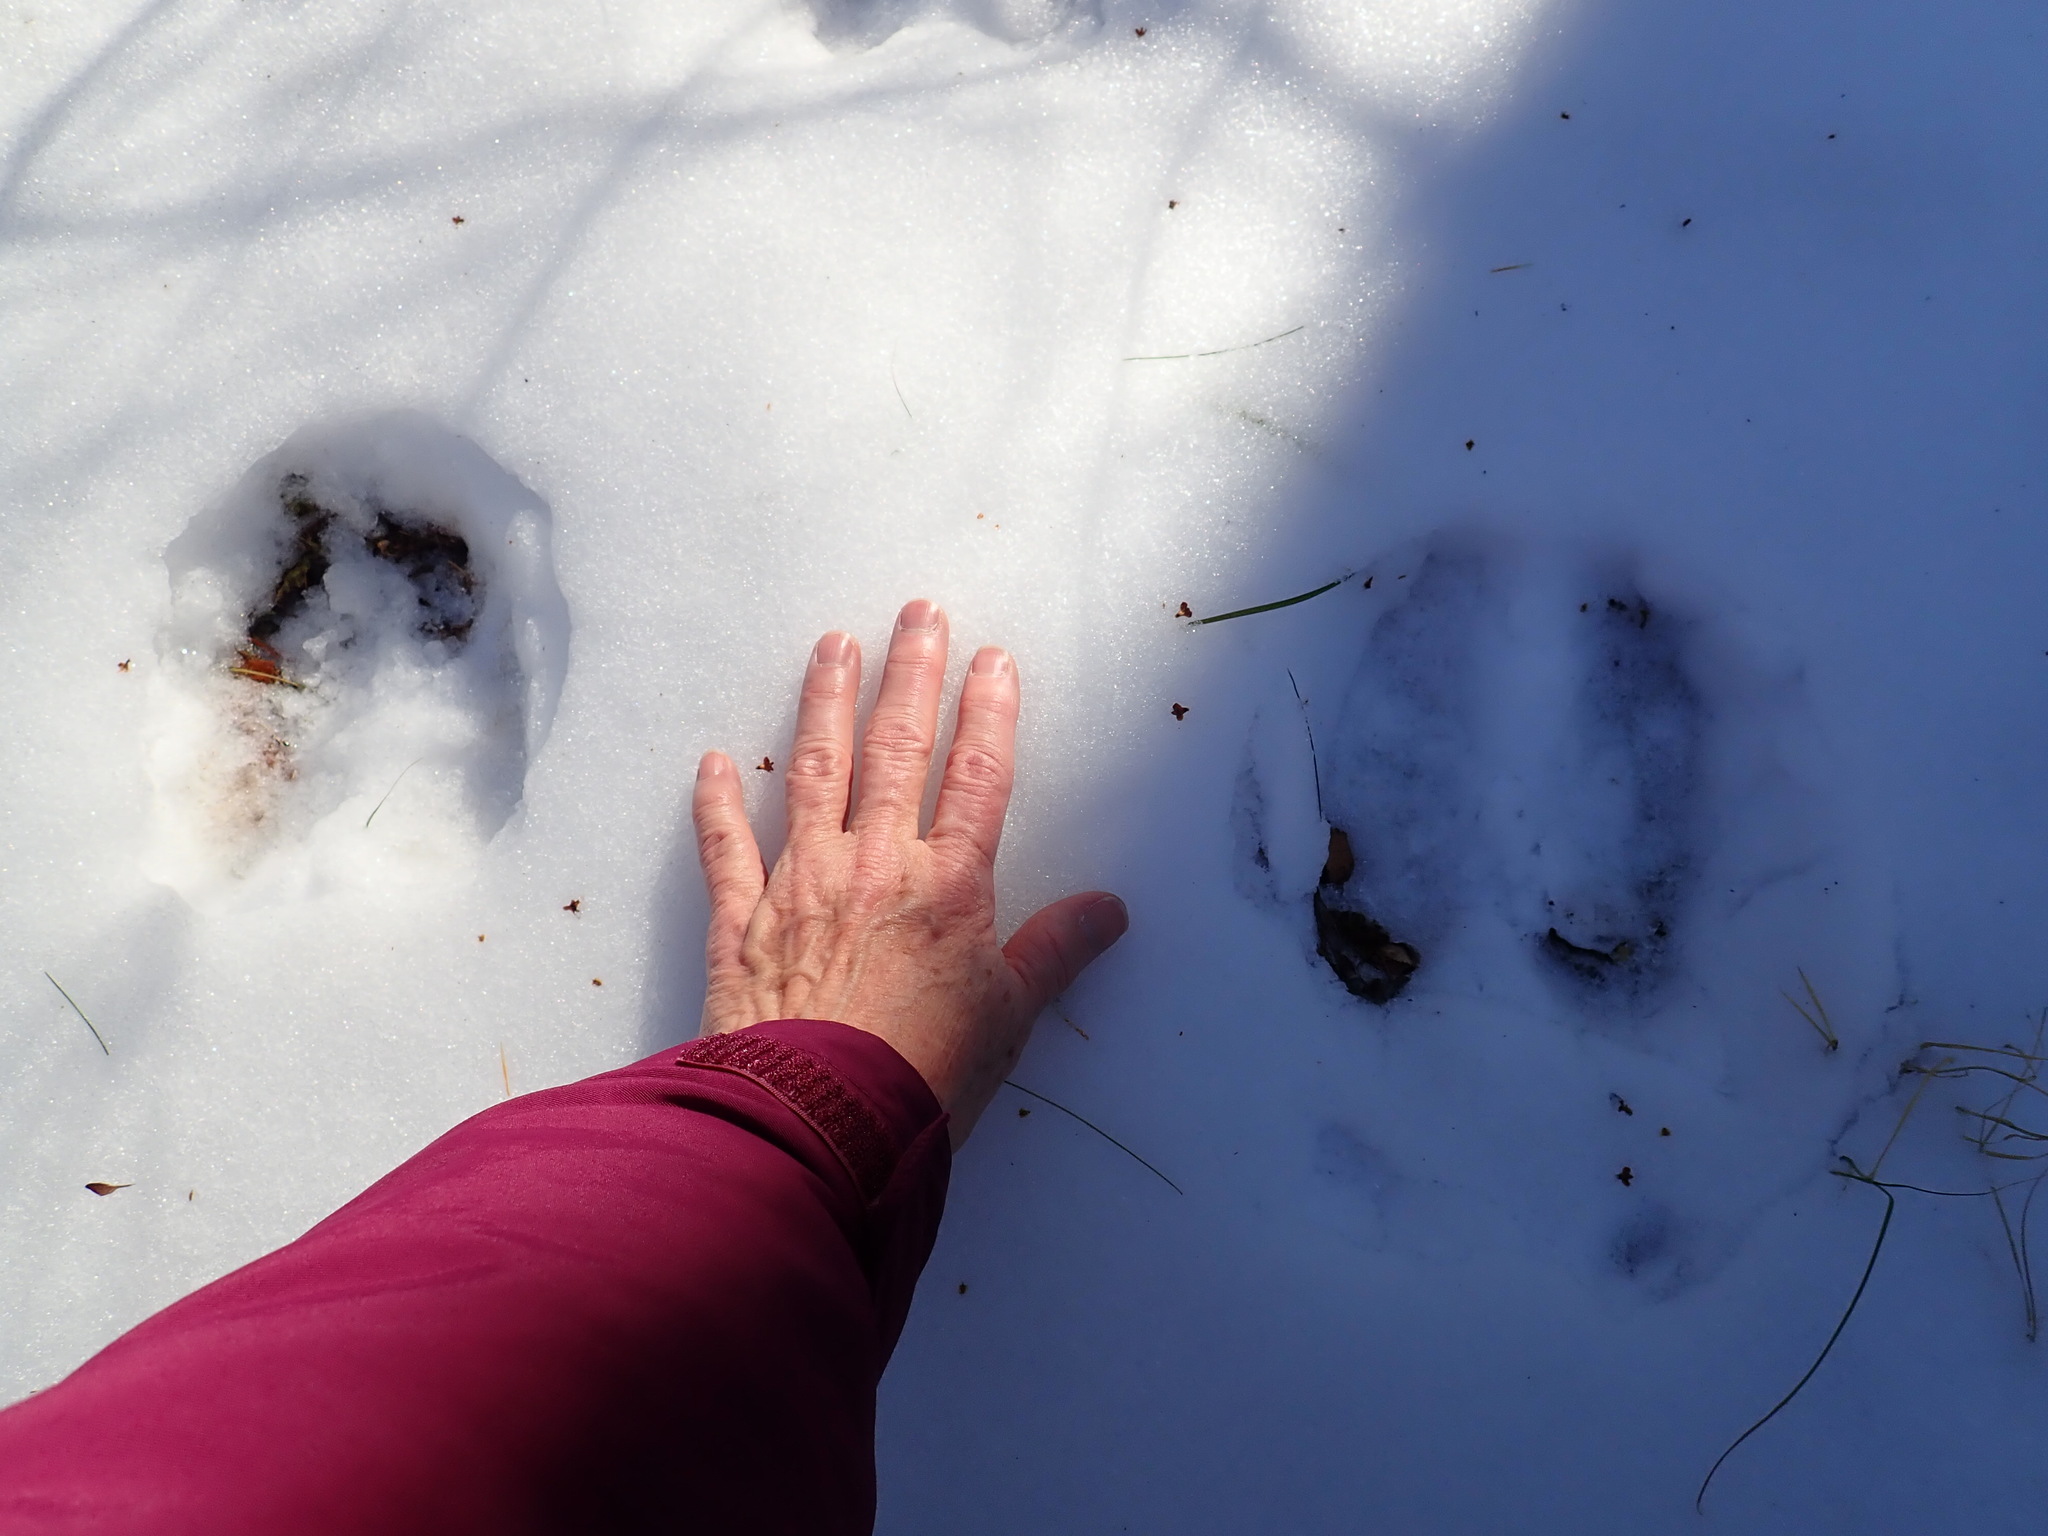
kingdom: Animalia
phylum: Chordata
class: Mammalia
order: Artiodactyla
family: Cervidae
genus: Alces
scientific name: Alces alces
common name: Moose
